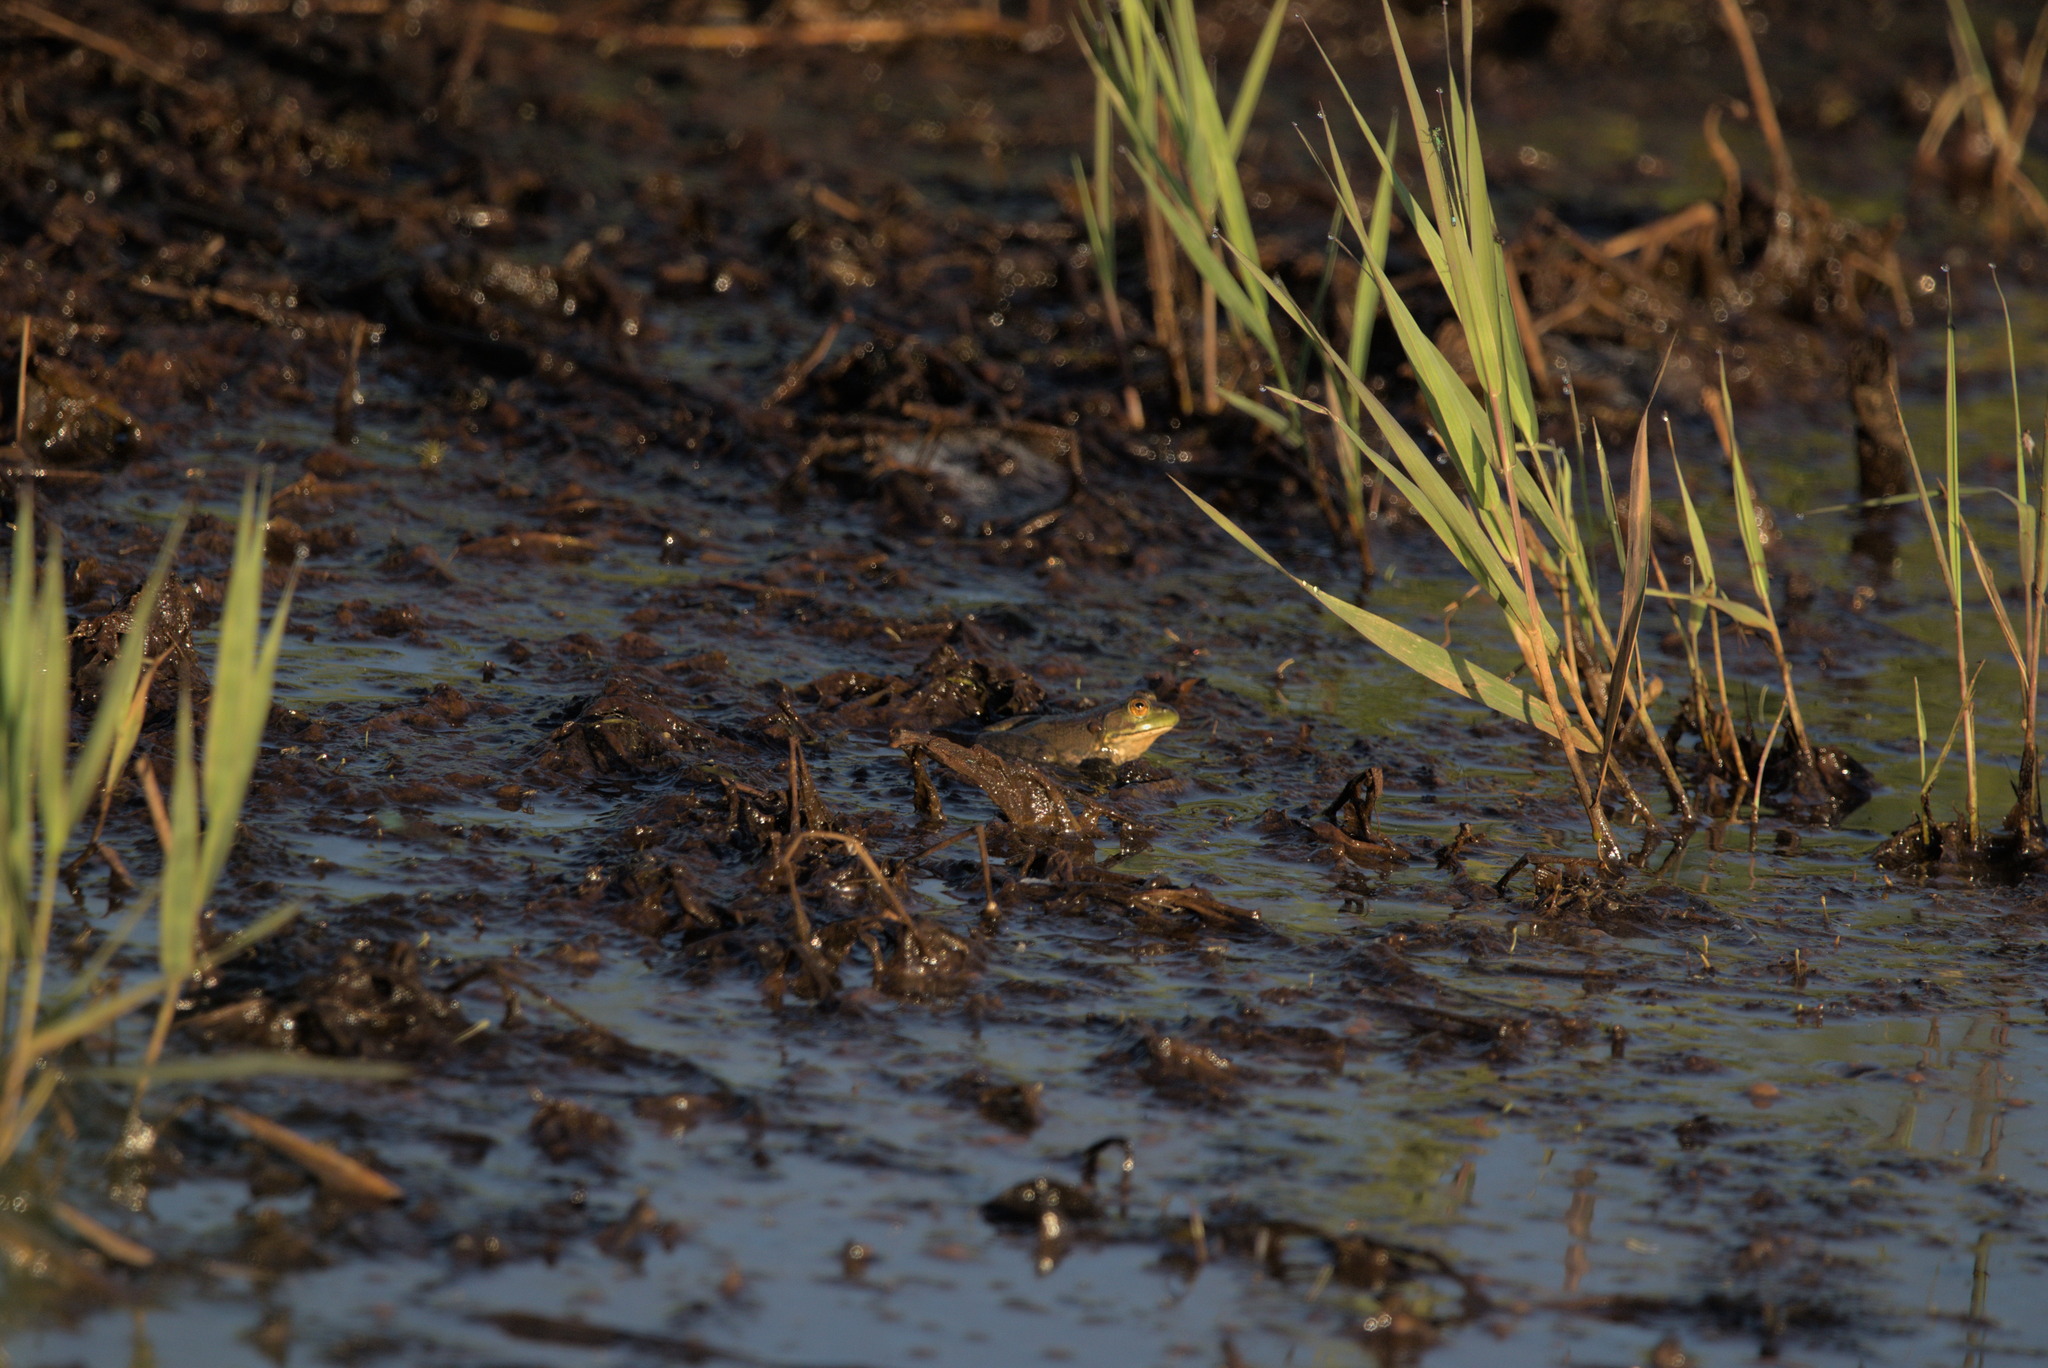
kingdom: Animalia
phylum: Chordata
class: Amphibia
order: Anura
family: Ranidae
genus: Lithobates
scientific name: Lithobates catesbeianus
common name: American bullfrog
